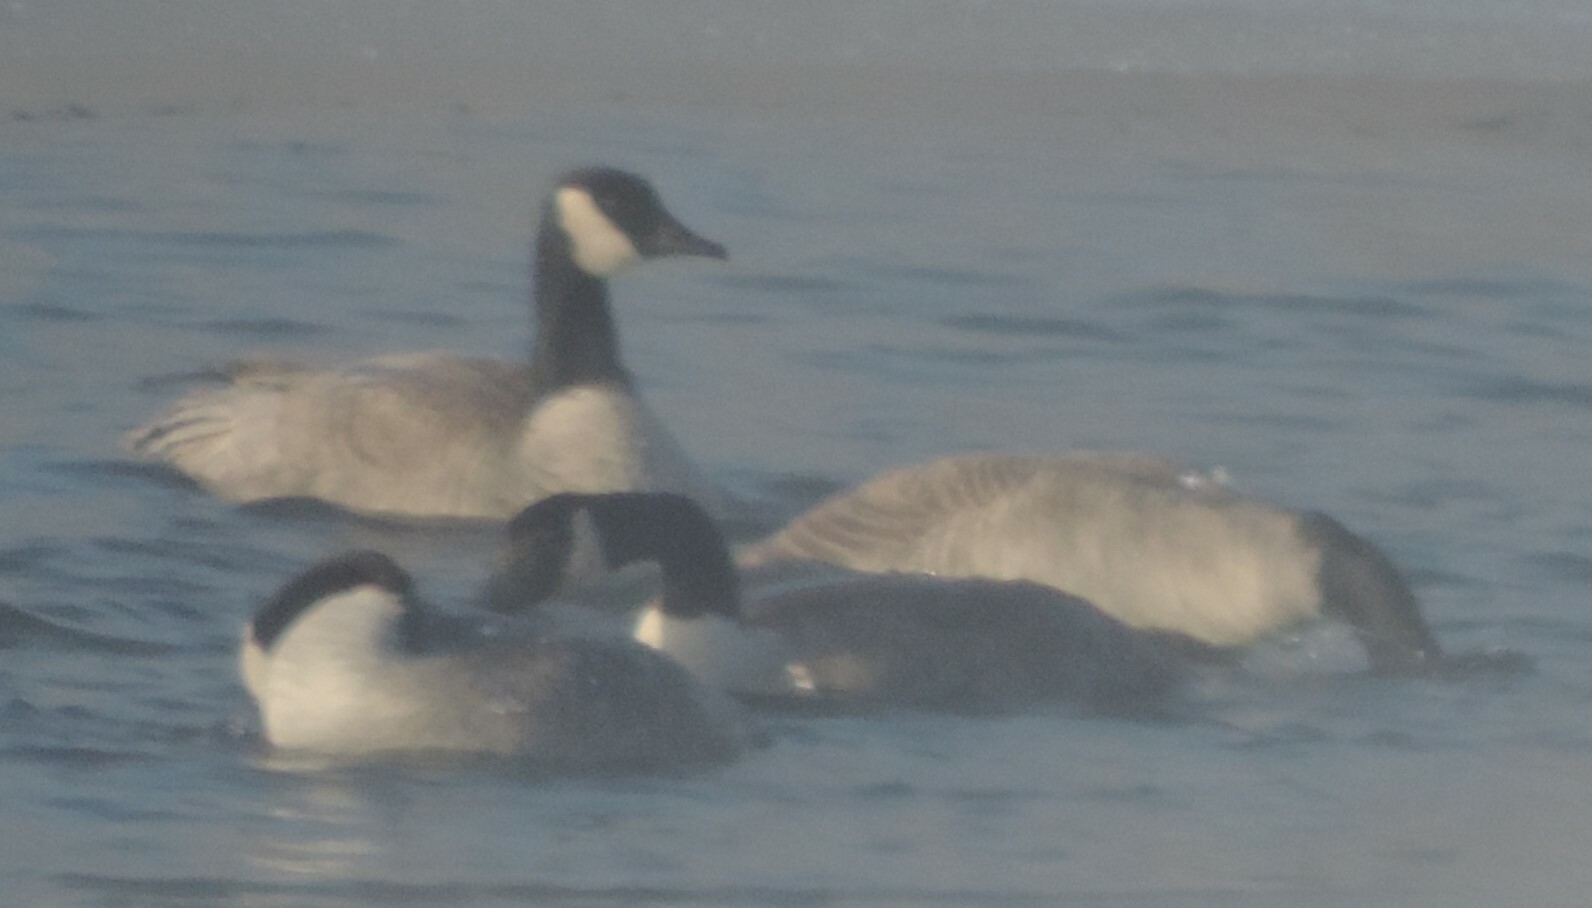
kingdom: Animalia
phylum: Chordata
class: Aves
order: Anseriformes
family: Anatidae
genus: Branta
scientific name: Branta canadensis
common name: Canada goose
